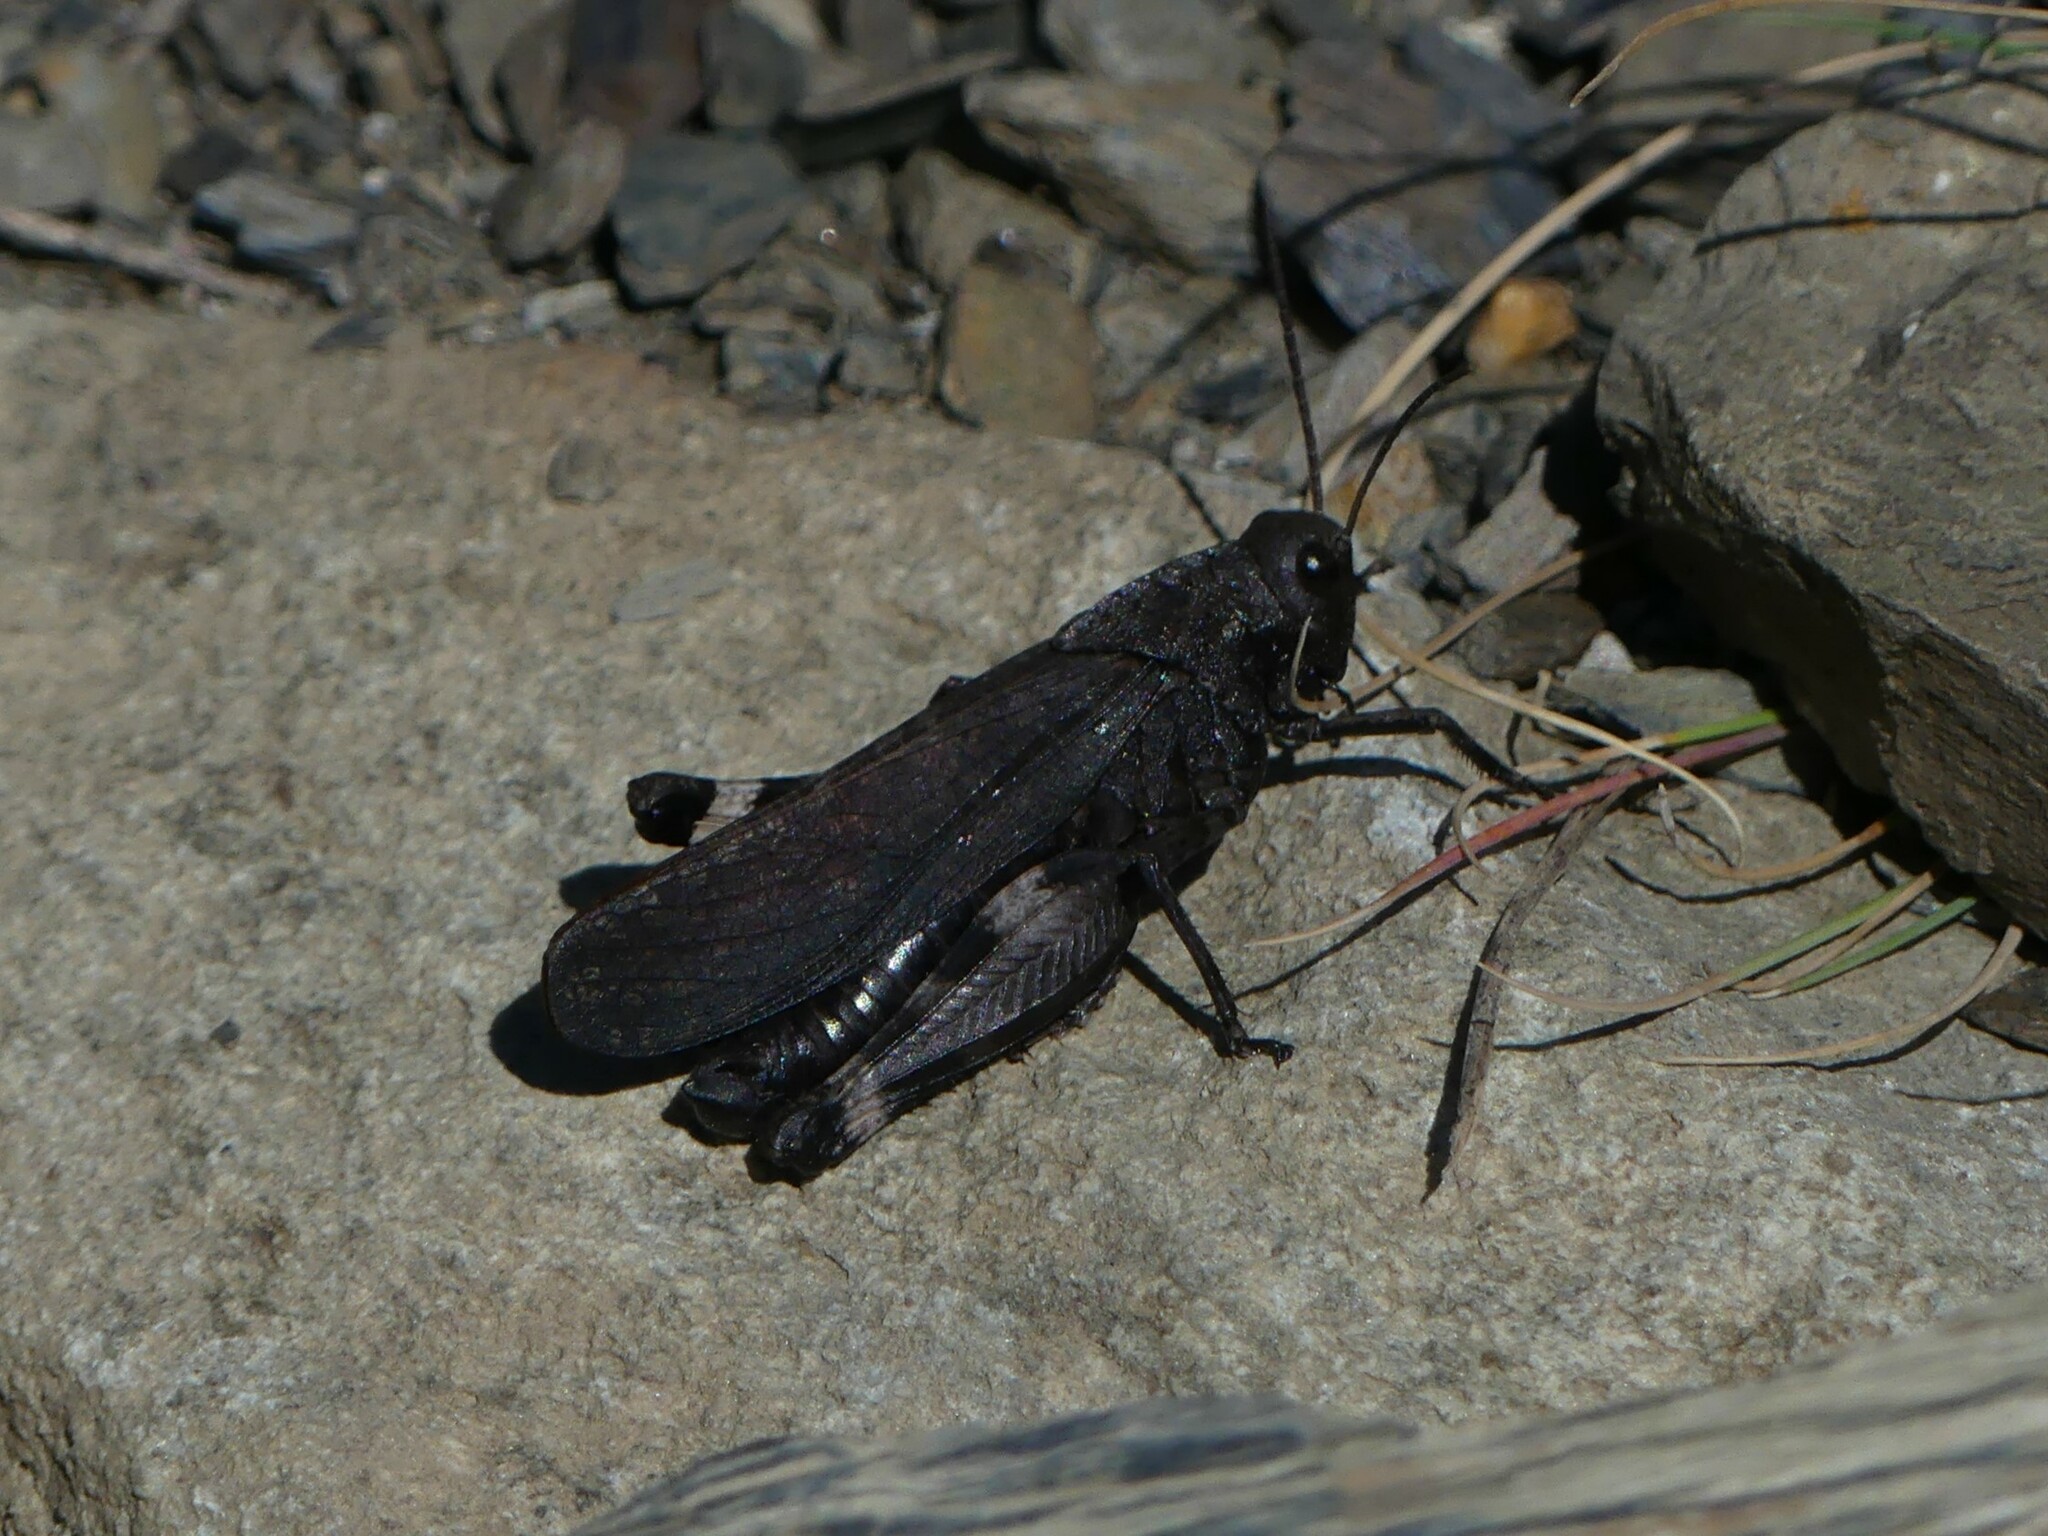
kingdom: Animalia
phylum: Arthropoda
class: Insecta
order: Orthoptera
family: Acrididae
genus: Psophus
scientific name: Psophus stridulus
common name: Rattle grasshopper
